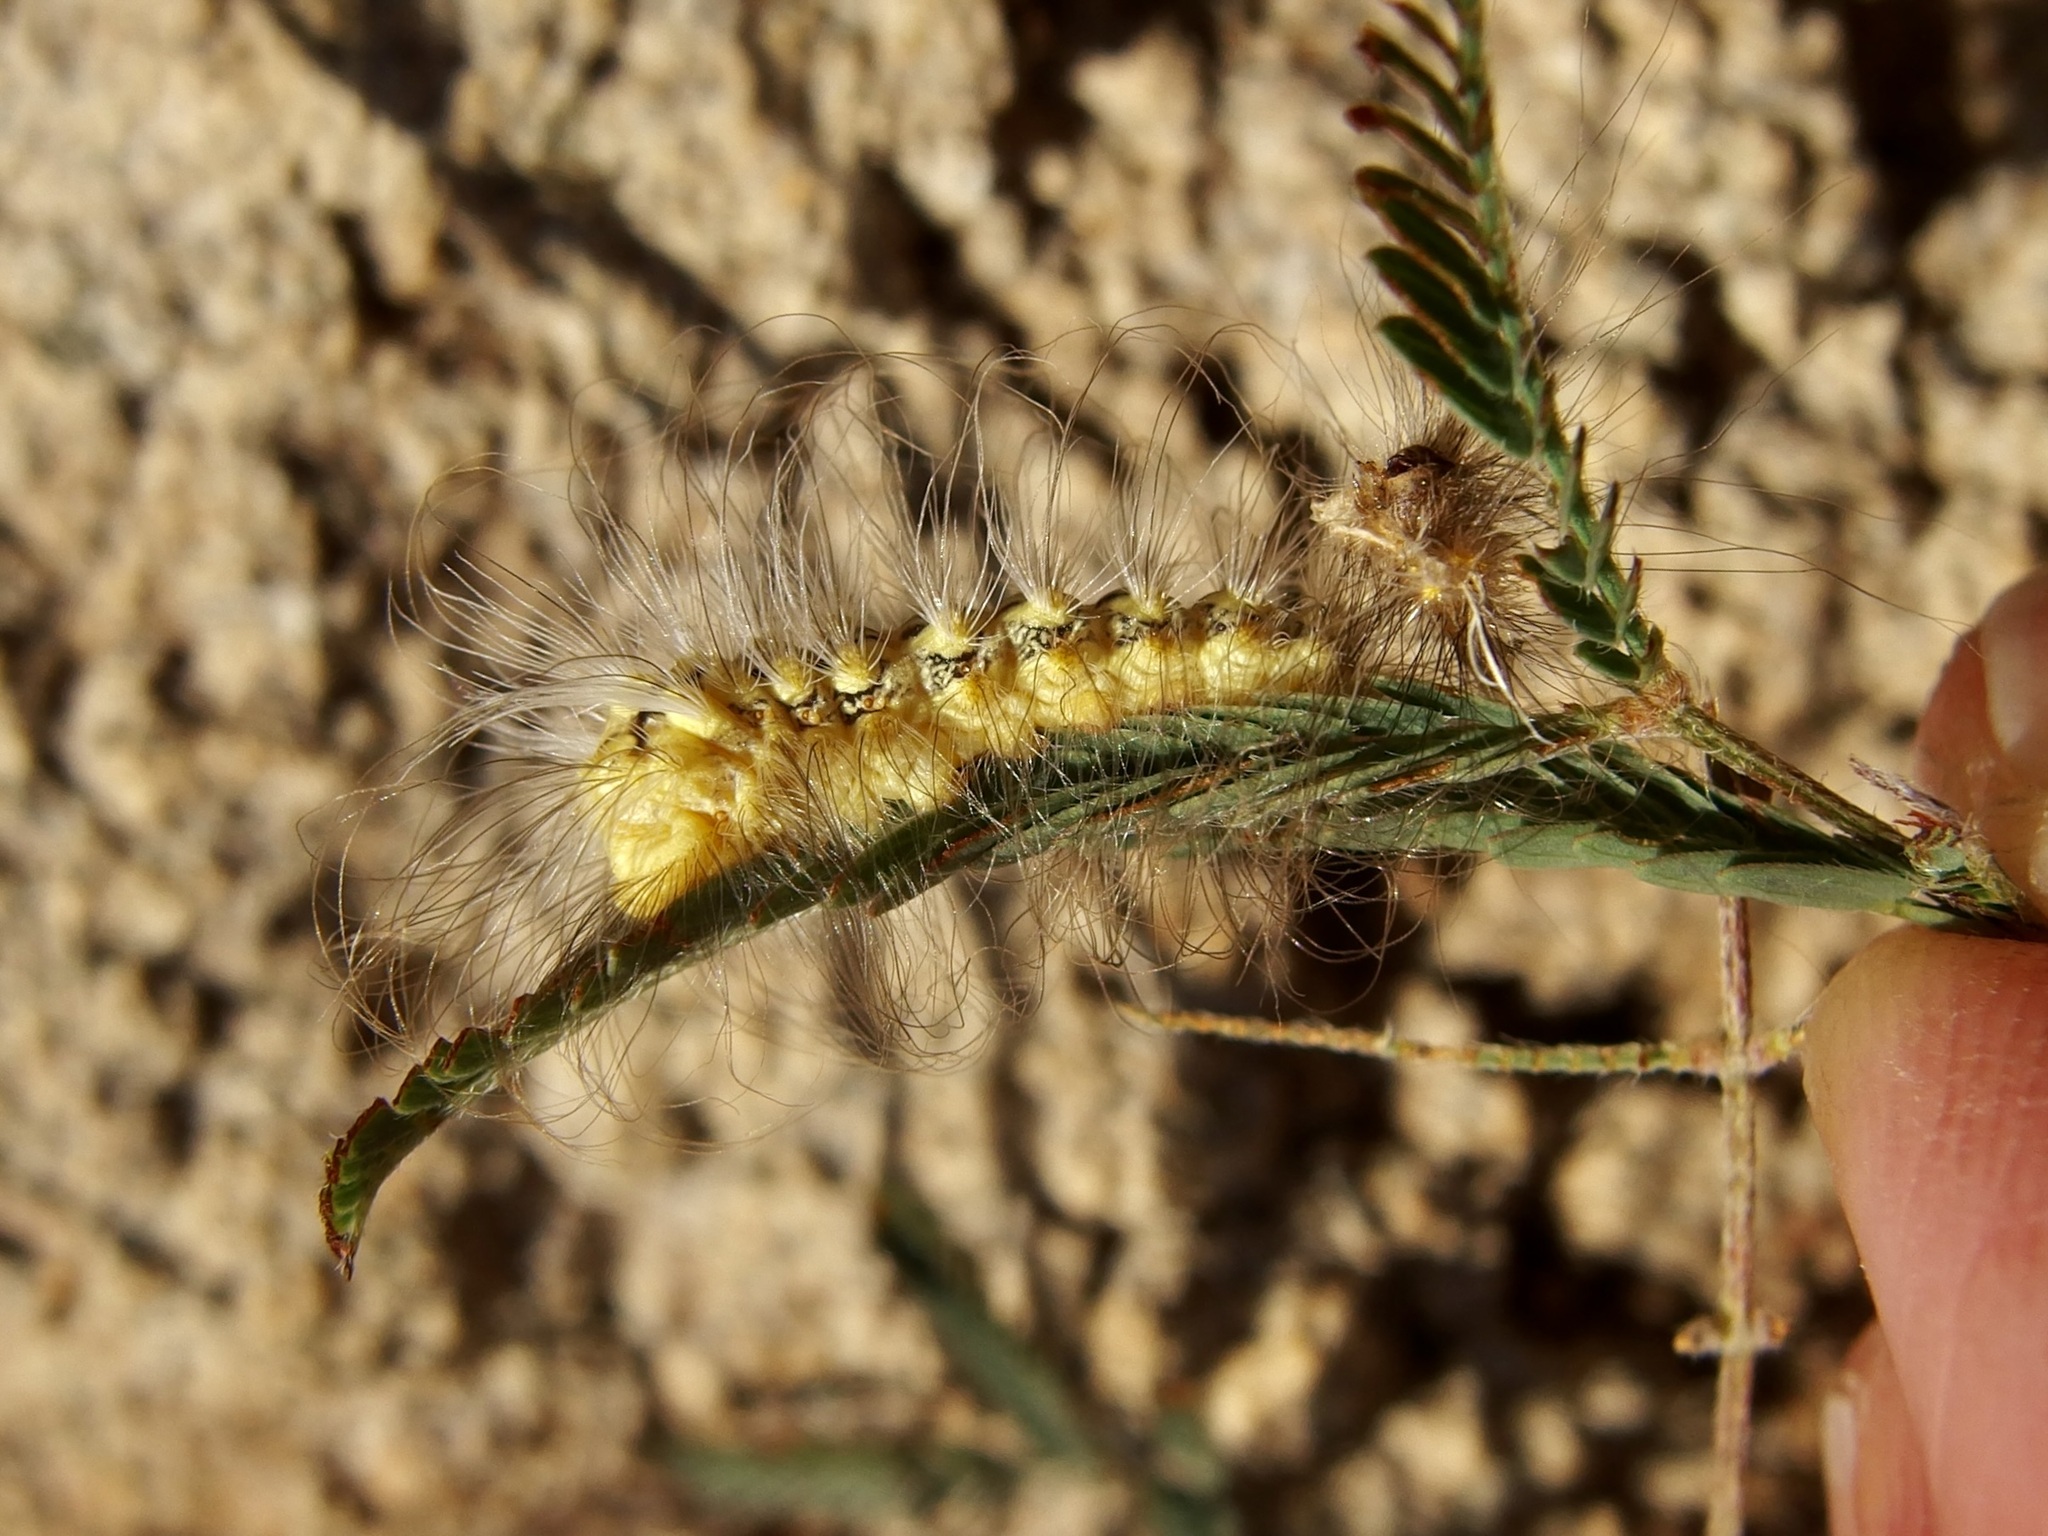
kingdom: Animalia
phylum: Arthropoda
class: Insecta
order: Lepidoptera
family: Megalopygidae
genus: Norape
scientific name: Norape tener
